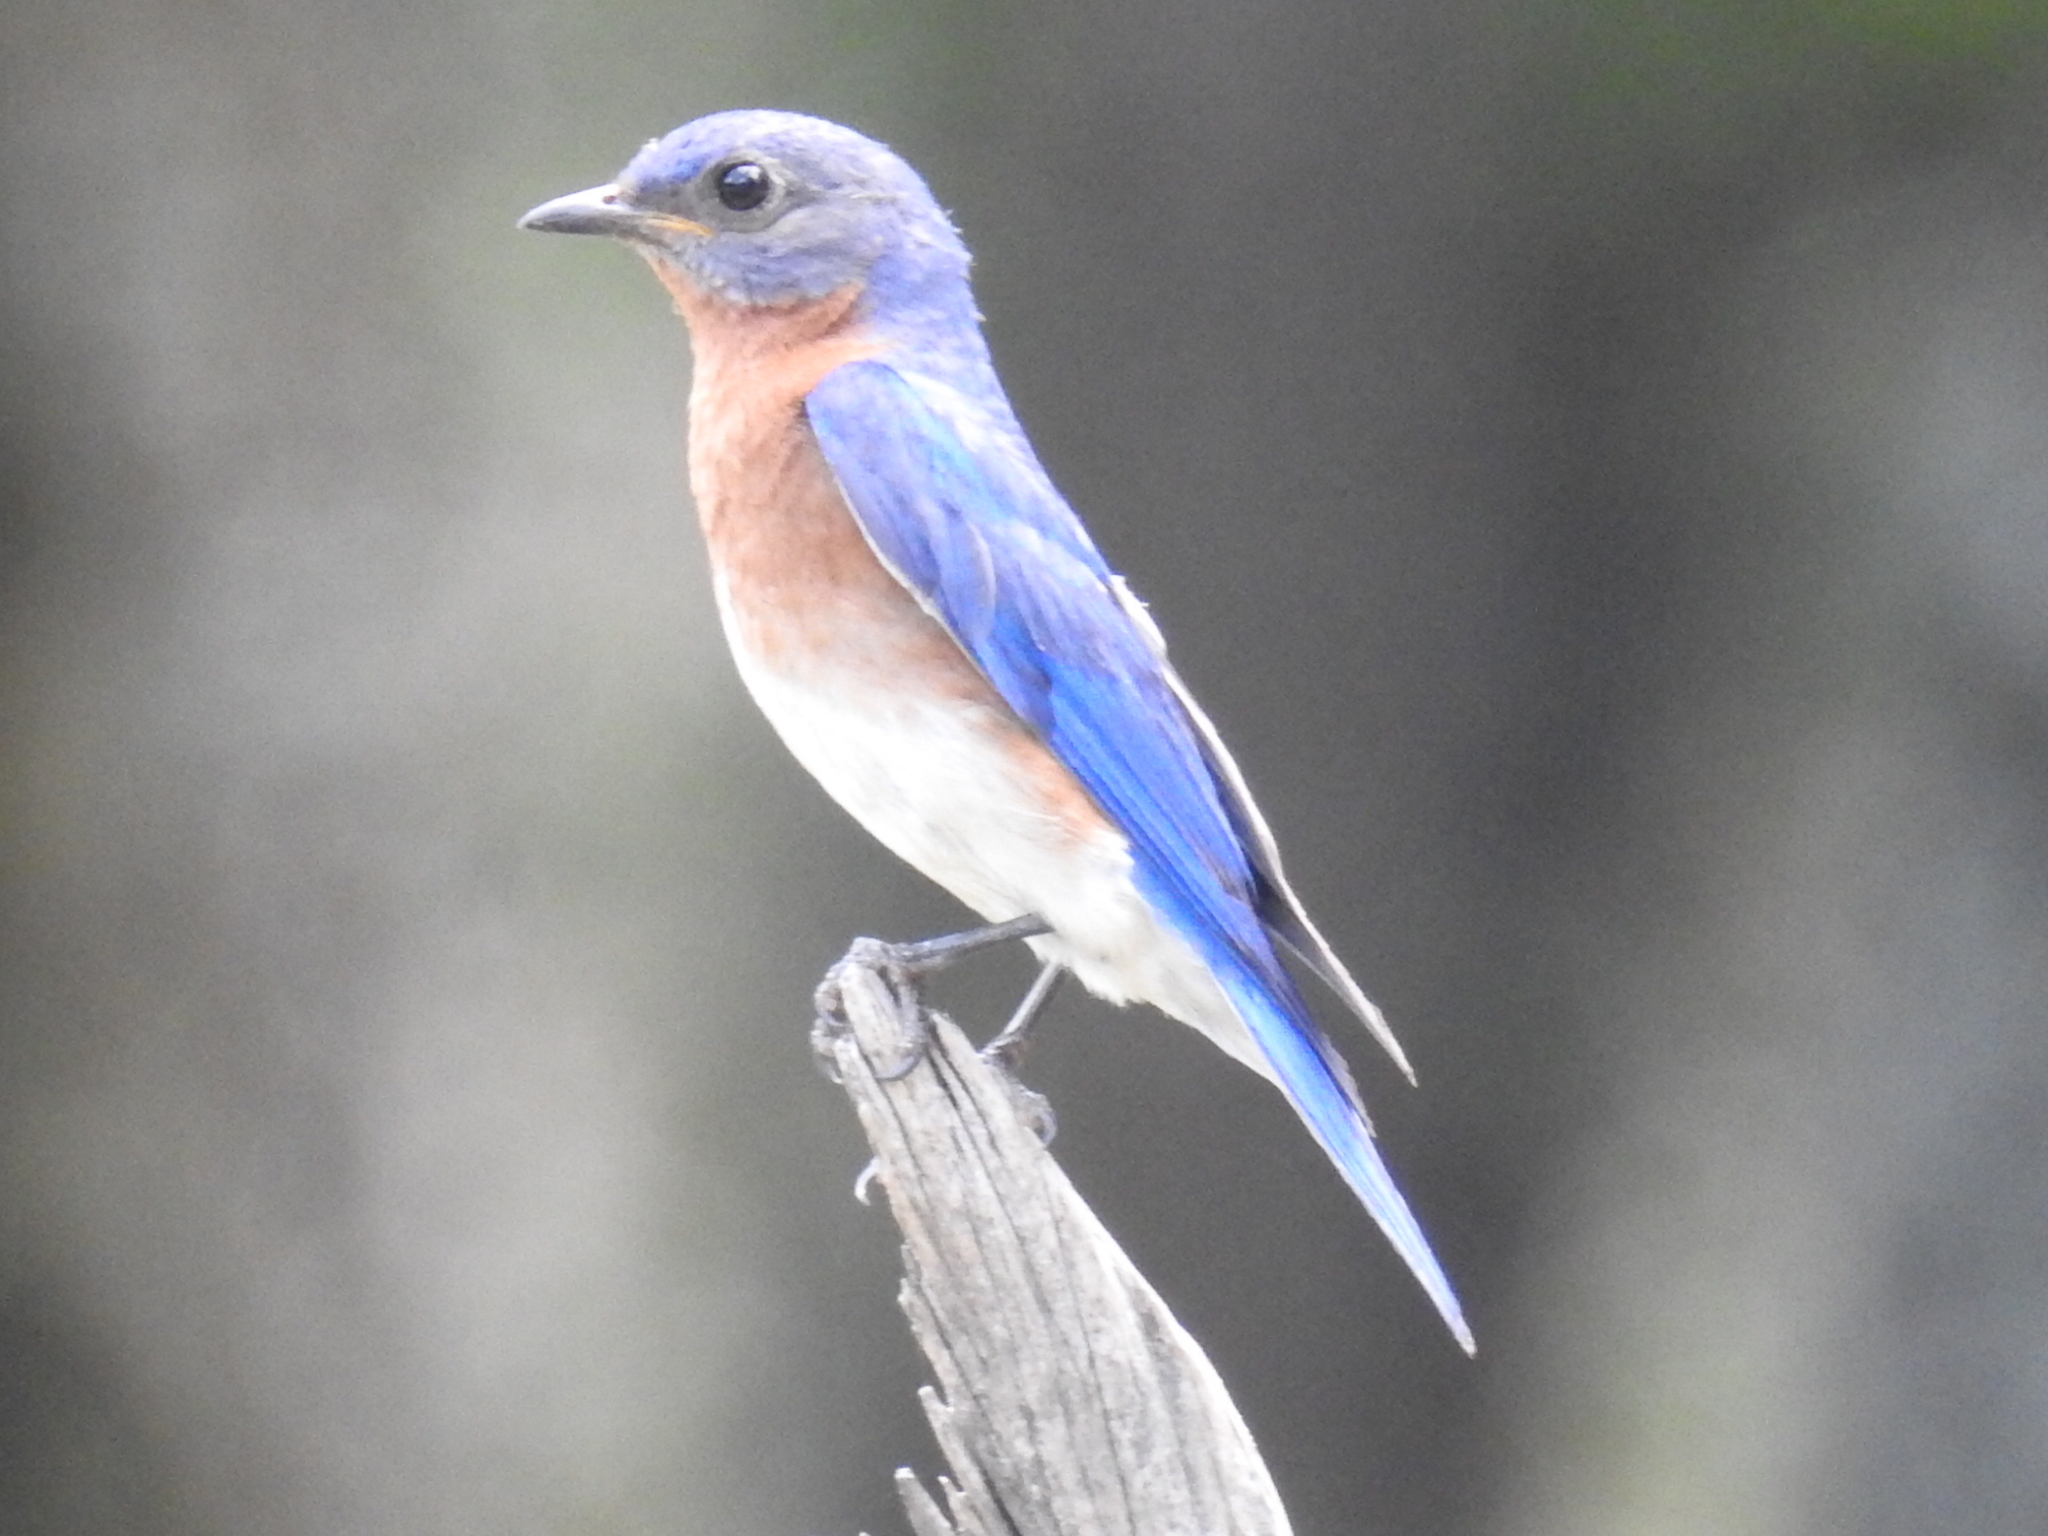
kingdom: Animalia
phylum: Chordata
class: Aves
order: Passeriformes
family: Turdidae
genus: Sialia
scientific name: Sialia sialis
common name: Eastern bluebird
